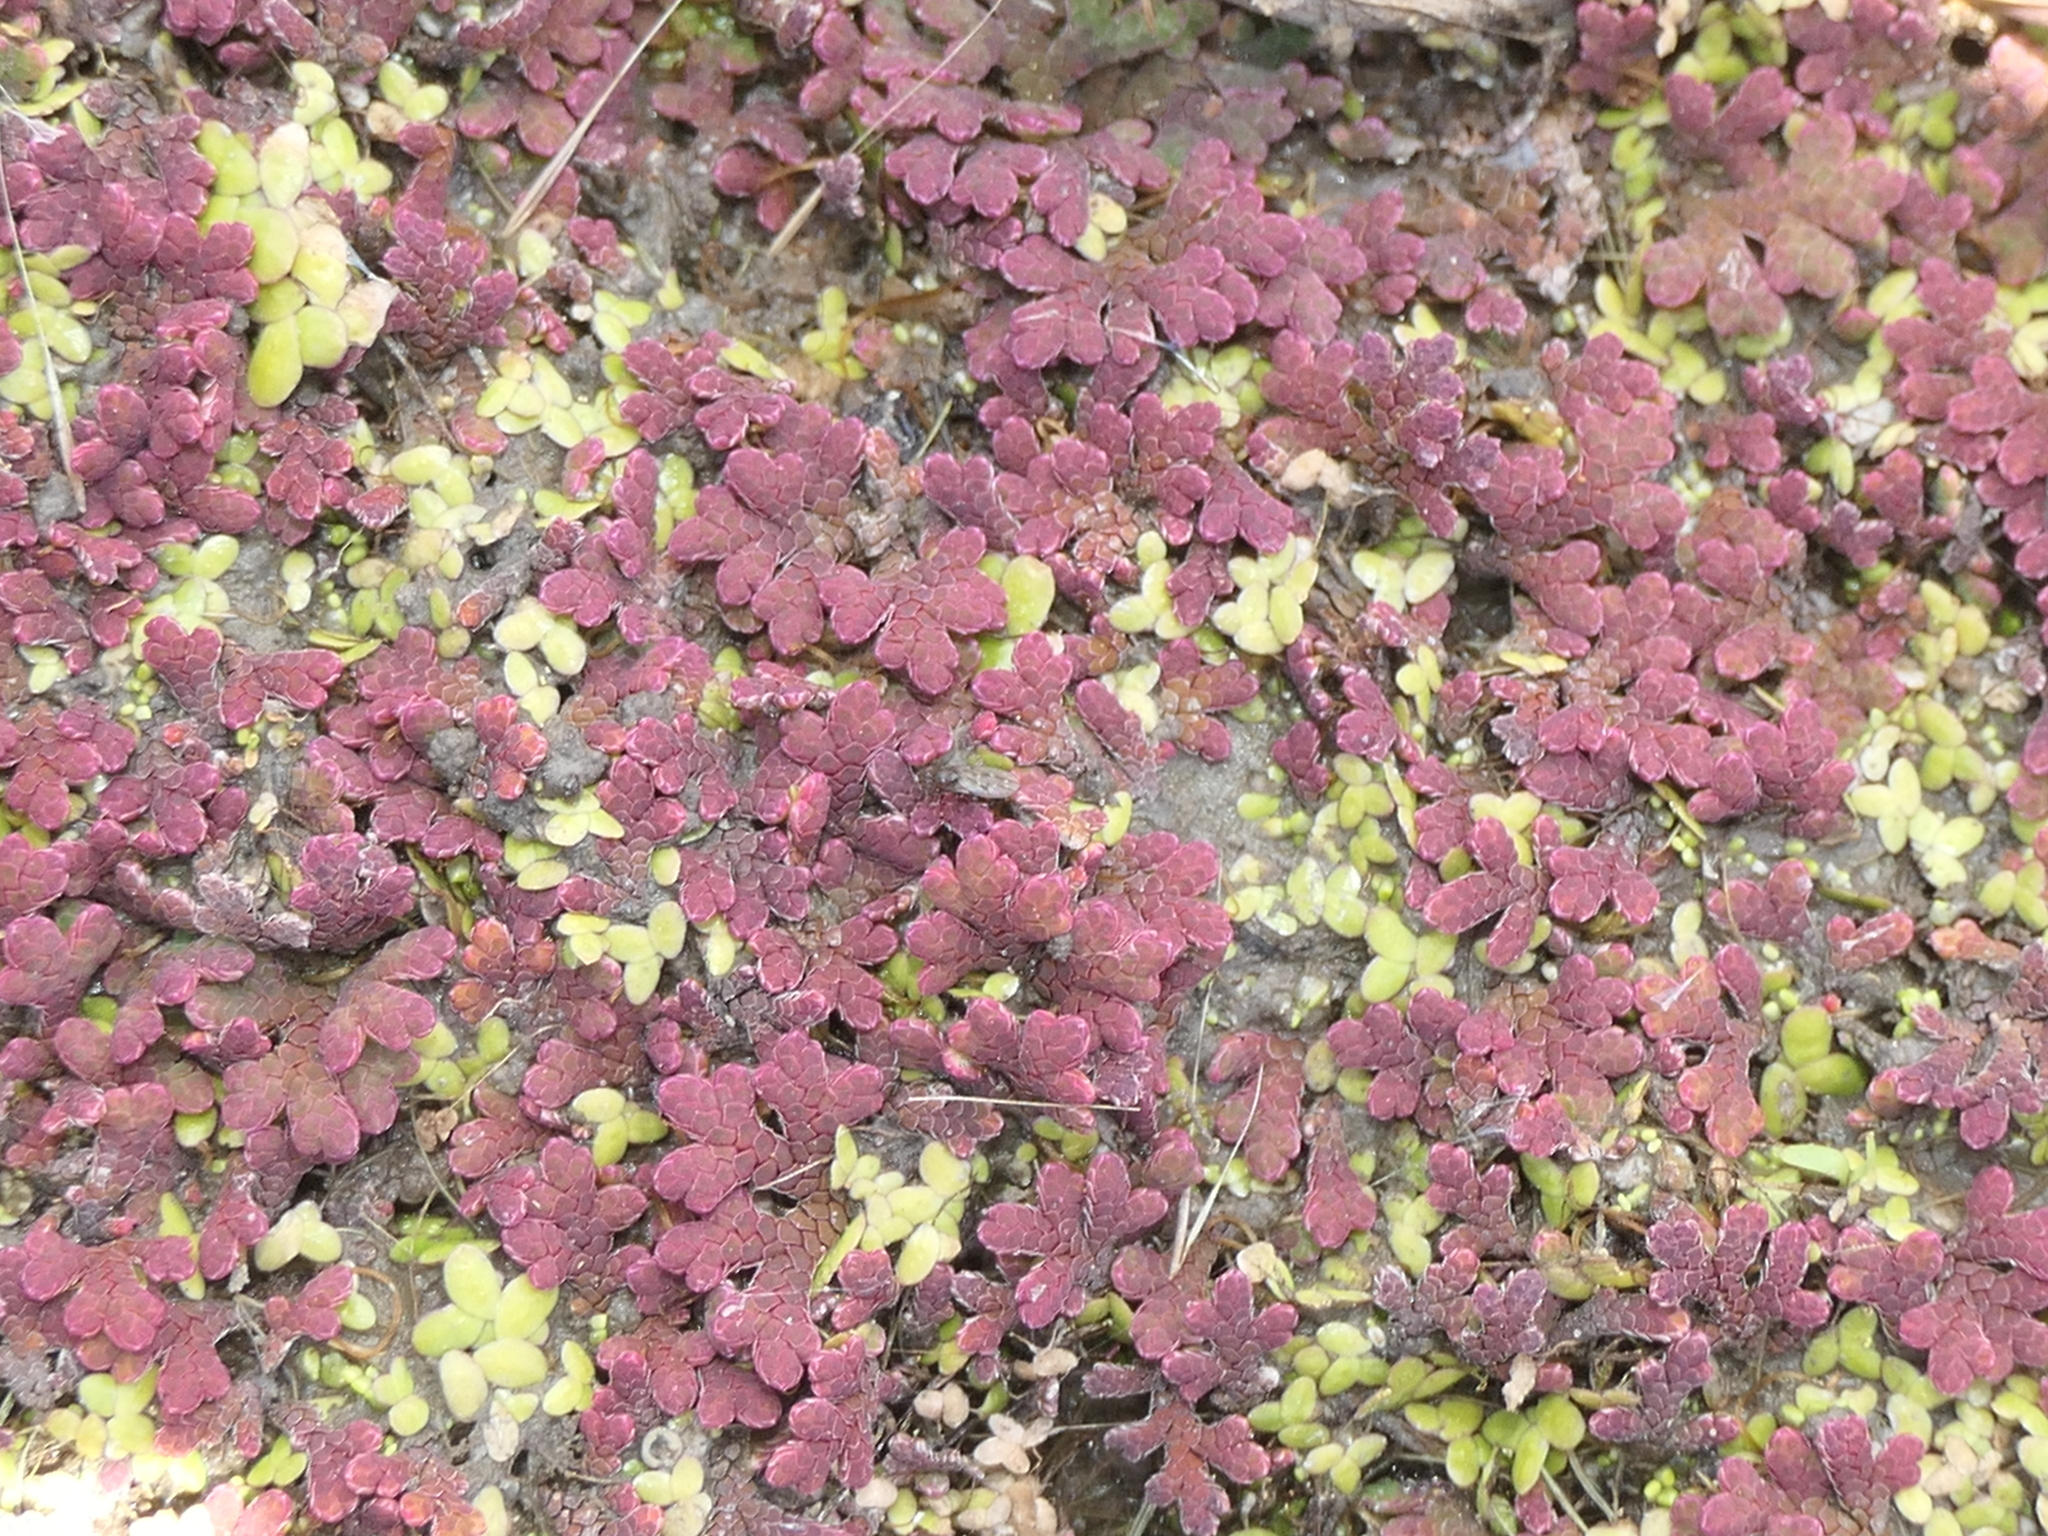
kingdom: Plantae
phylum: Tracheophyta
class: Polypodiopsida
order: Salviniales
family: Salviniaceae
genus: Azolla
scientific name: Azolla rubra
